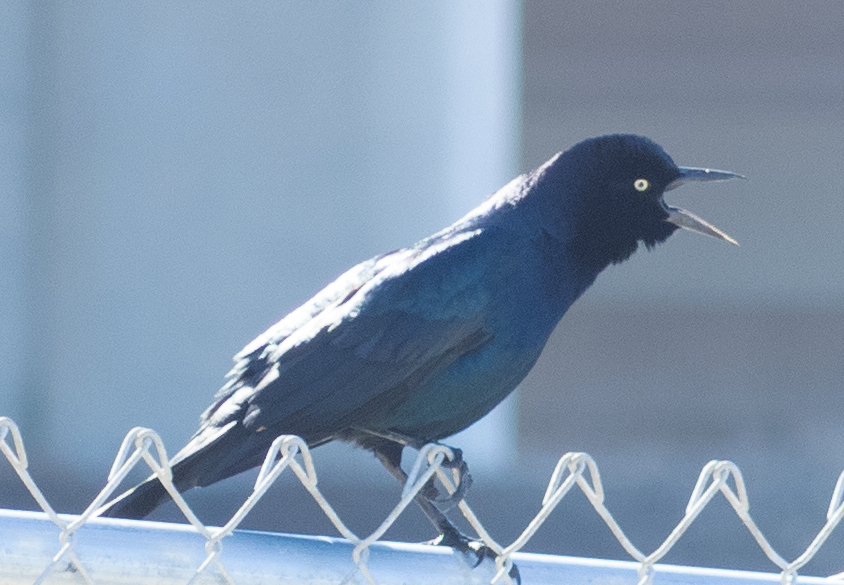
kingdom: Animalia
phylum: Chordata
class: Aves
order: Passeriformes
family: Icteridae
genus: Quiscalus
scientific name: Quiscalus major
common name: Boat-tailed grackle
